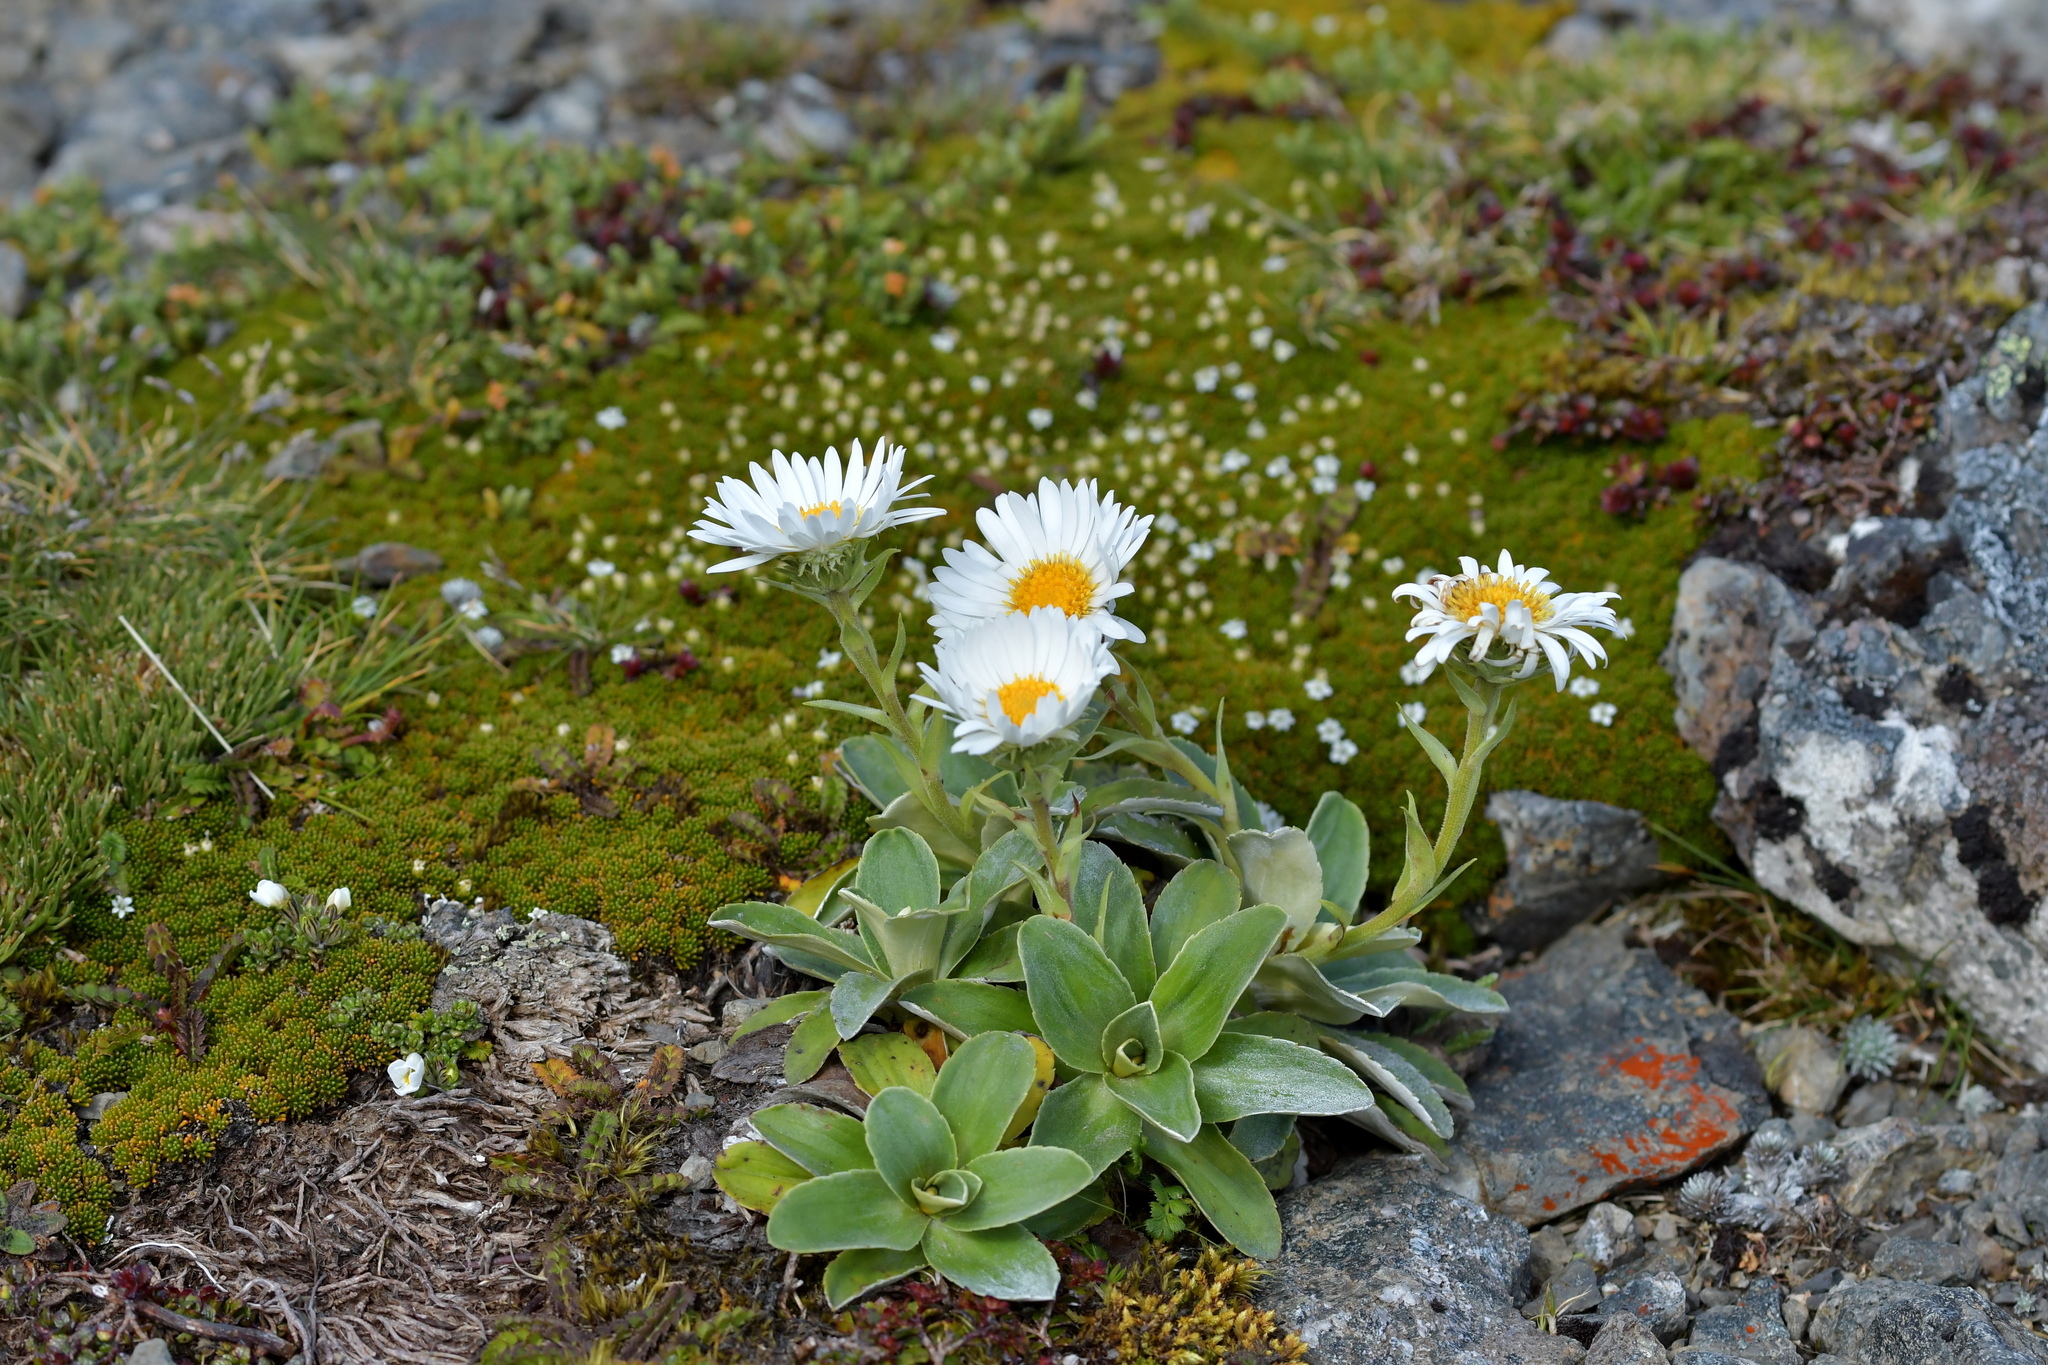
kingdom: Plantae
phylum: Tracheophyta
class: Magnoliopsida
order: Asterales
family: Asteraceae
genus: Celmisia
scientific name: Celmisia hieraciifolia
